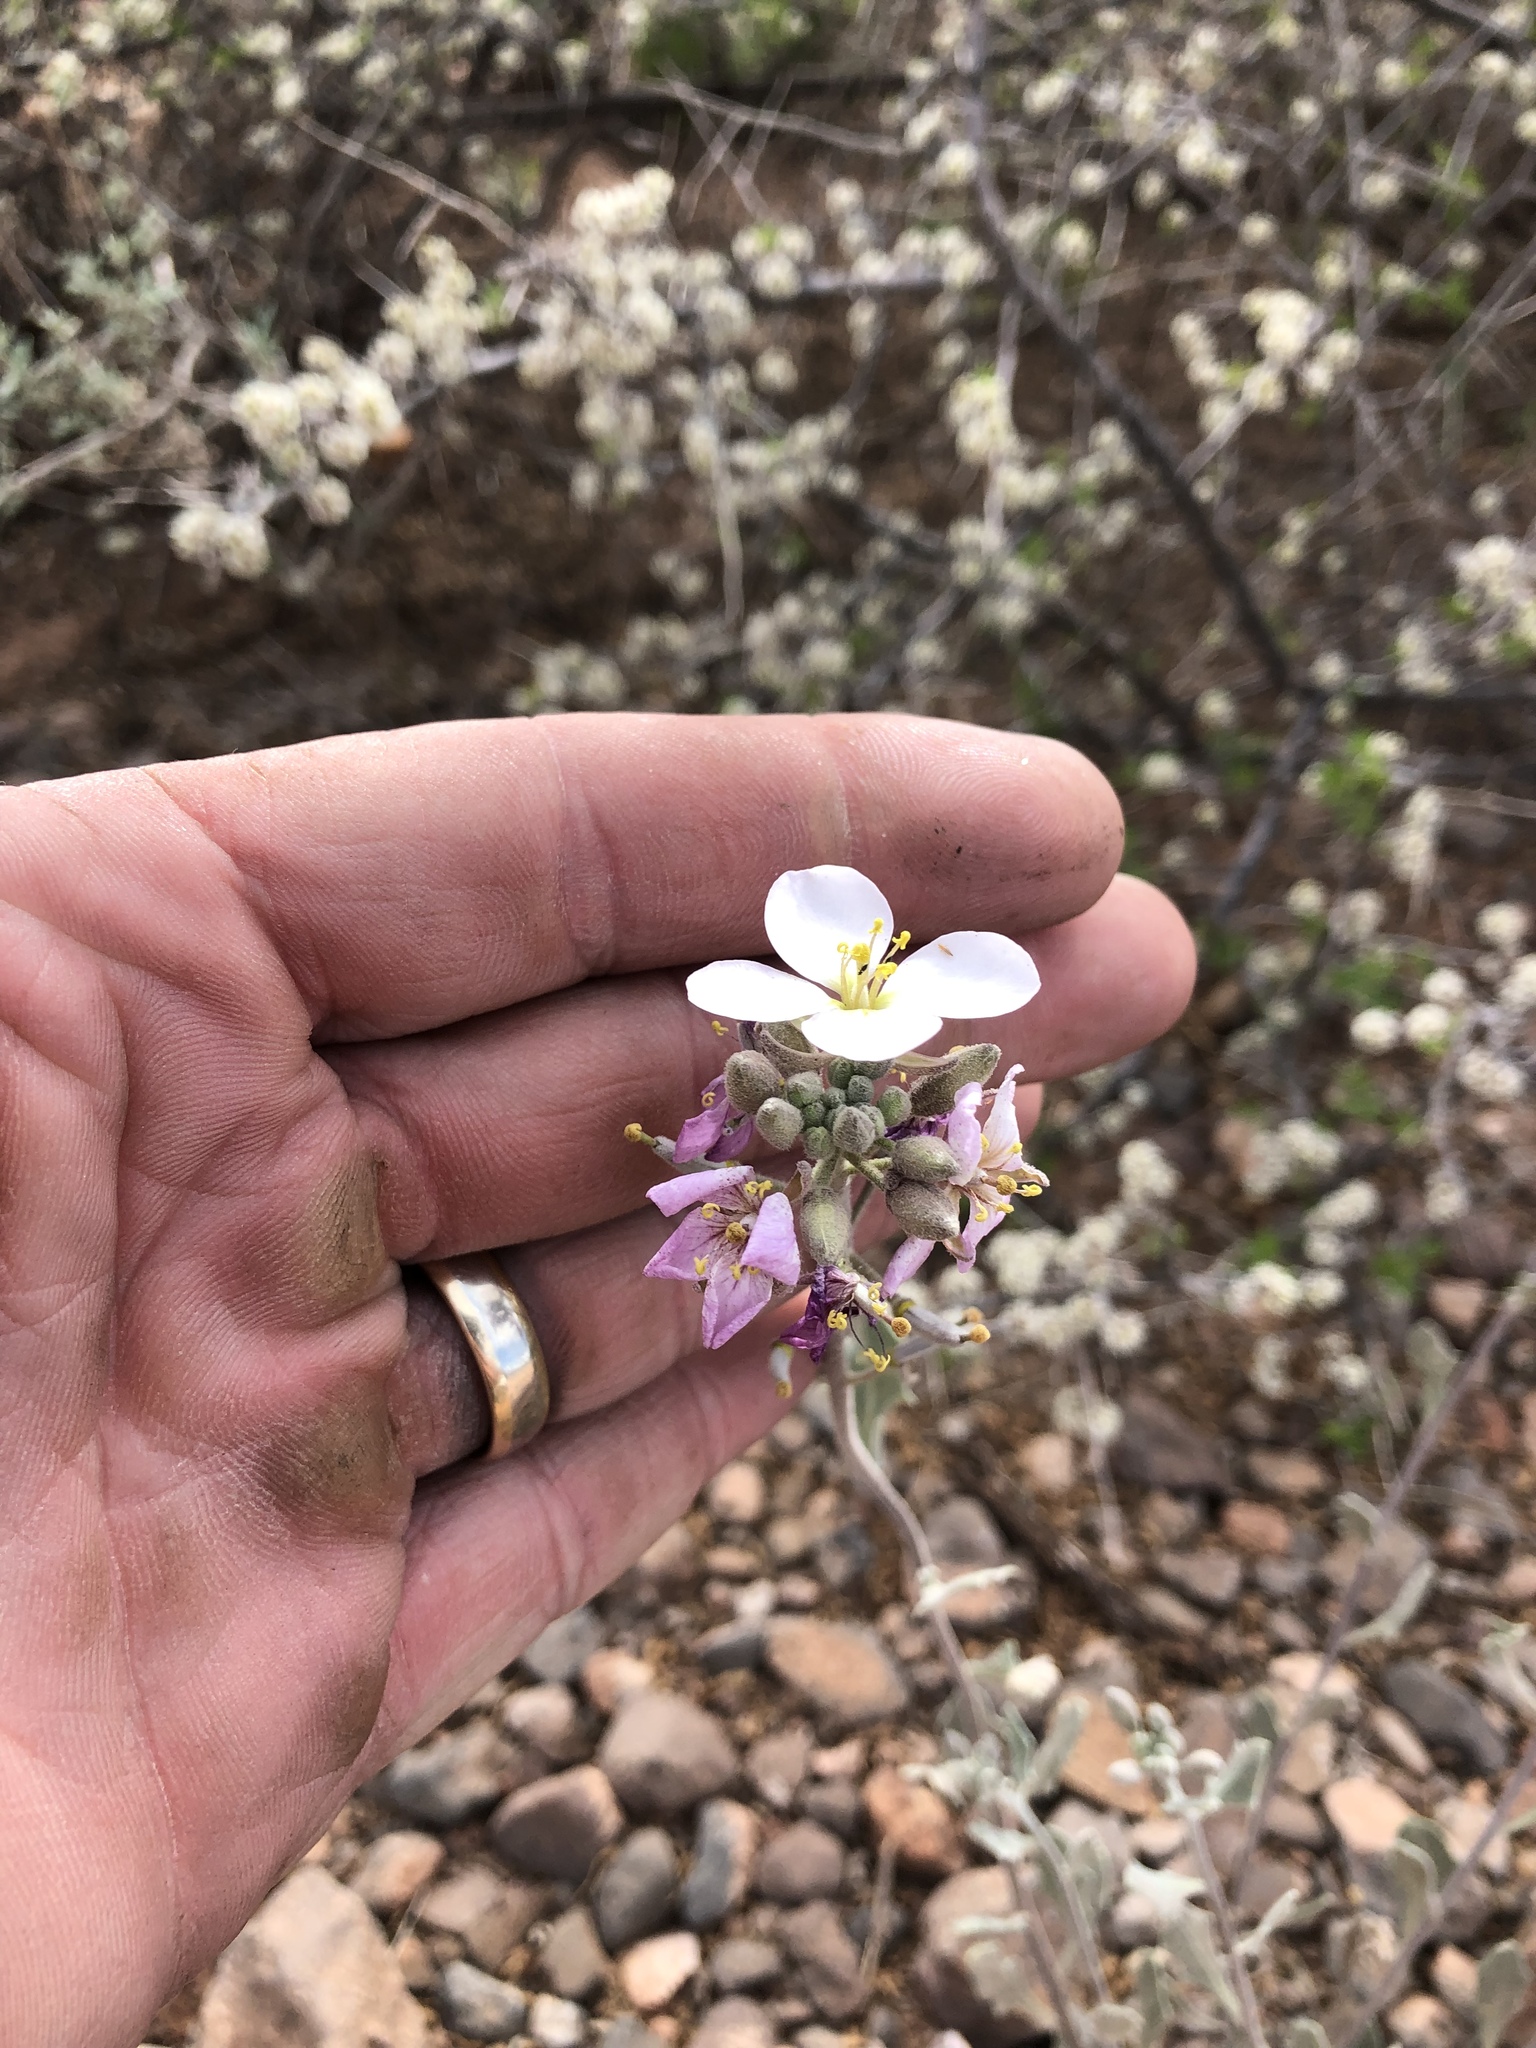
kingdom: Plantae
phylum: Tracheophyta
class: Magnoliopsida
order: Brassicales
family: Brassicaceae
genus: Nerisyrenia
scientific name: Nerisyrenia camporum
